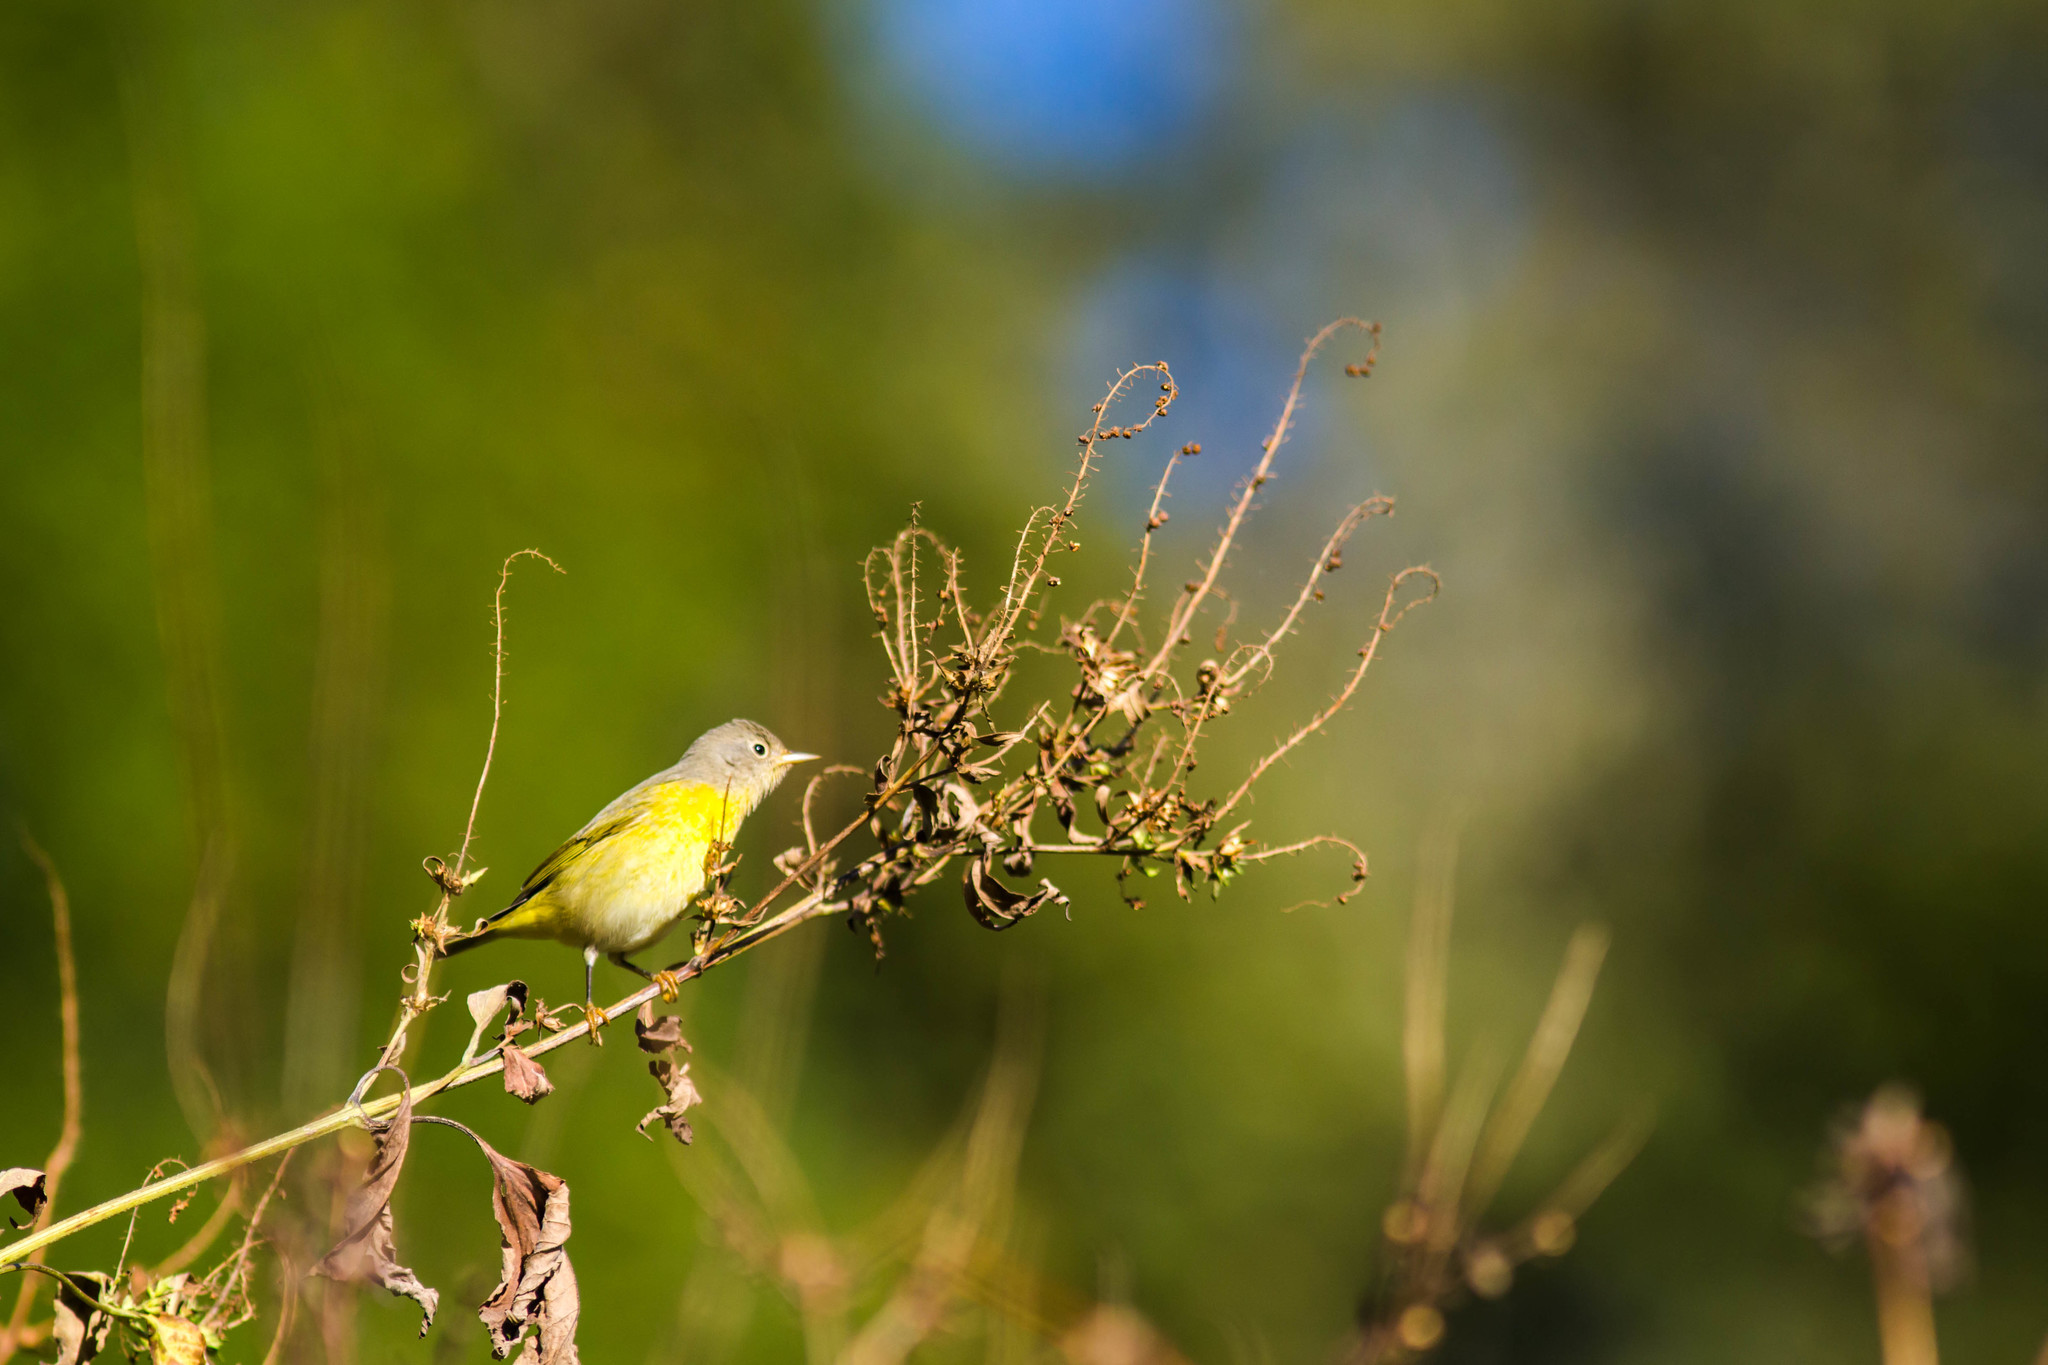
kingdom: Animalia
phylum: Chordata
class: Aves
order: Passeriformes
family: Parulidae
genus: Leiothlypis
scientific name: Leiothlypis ruficapilla
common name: Nashville warbler
